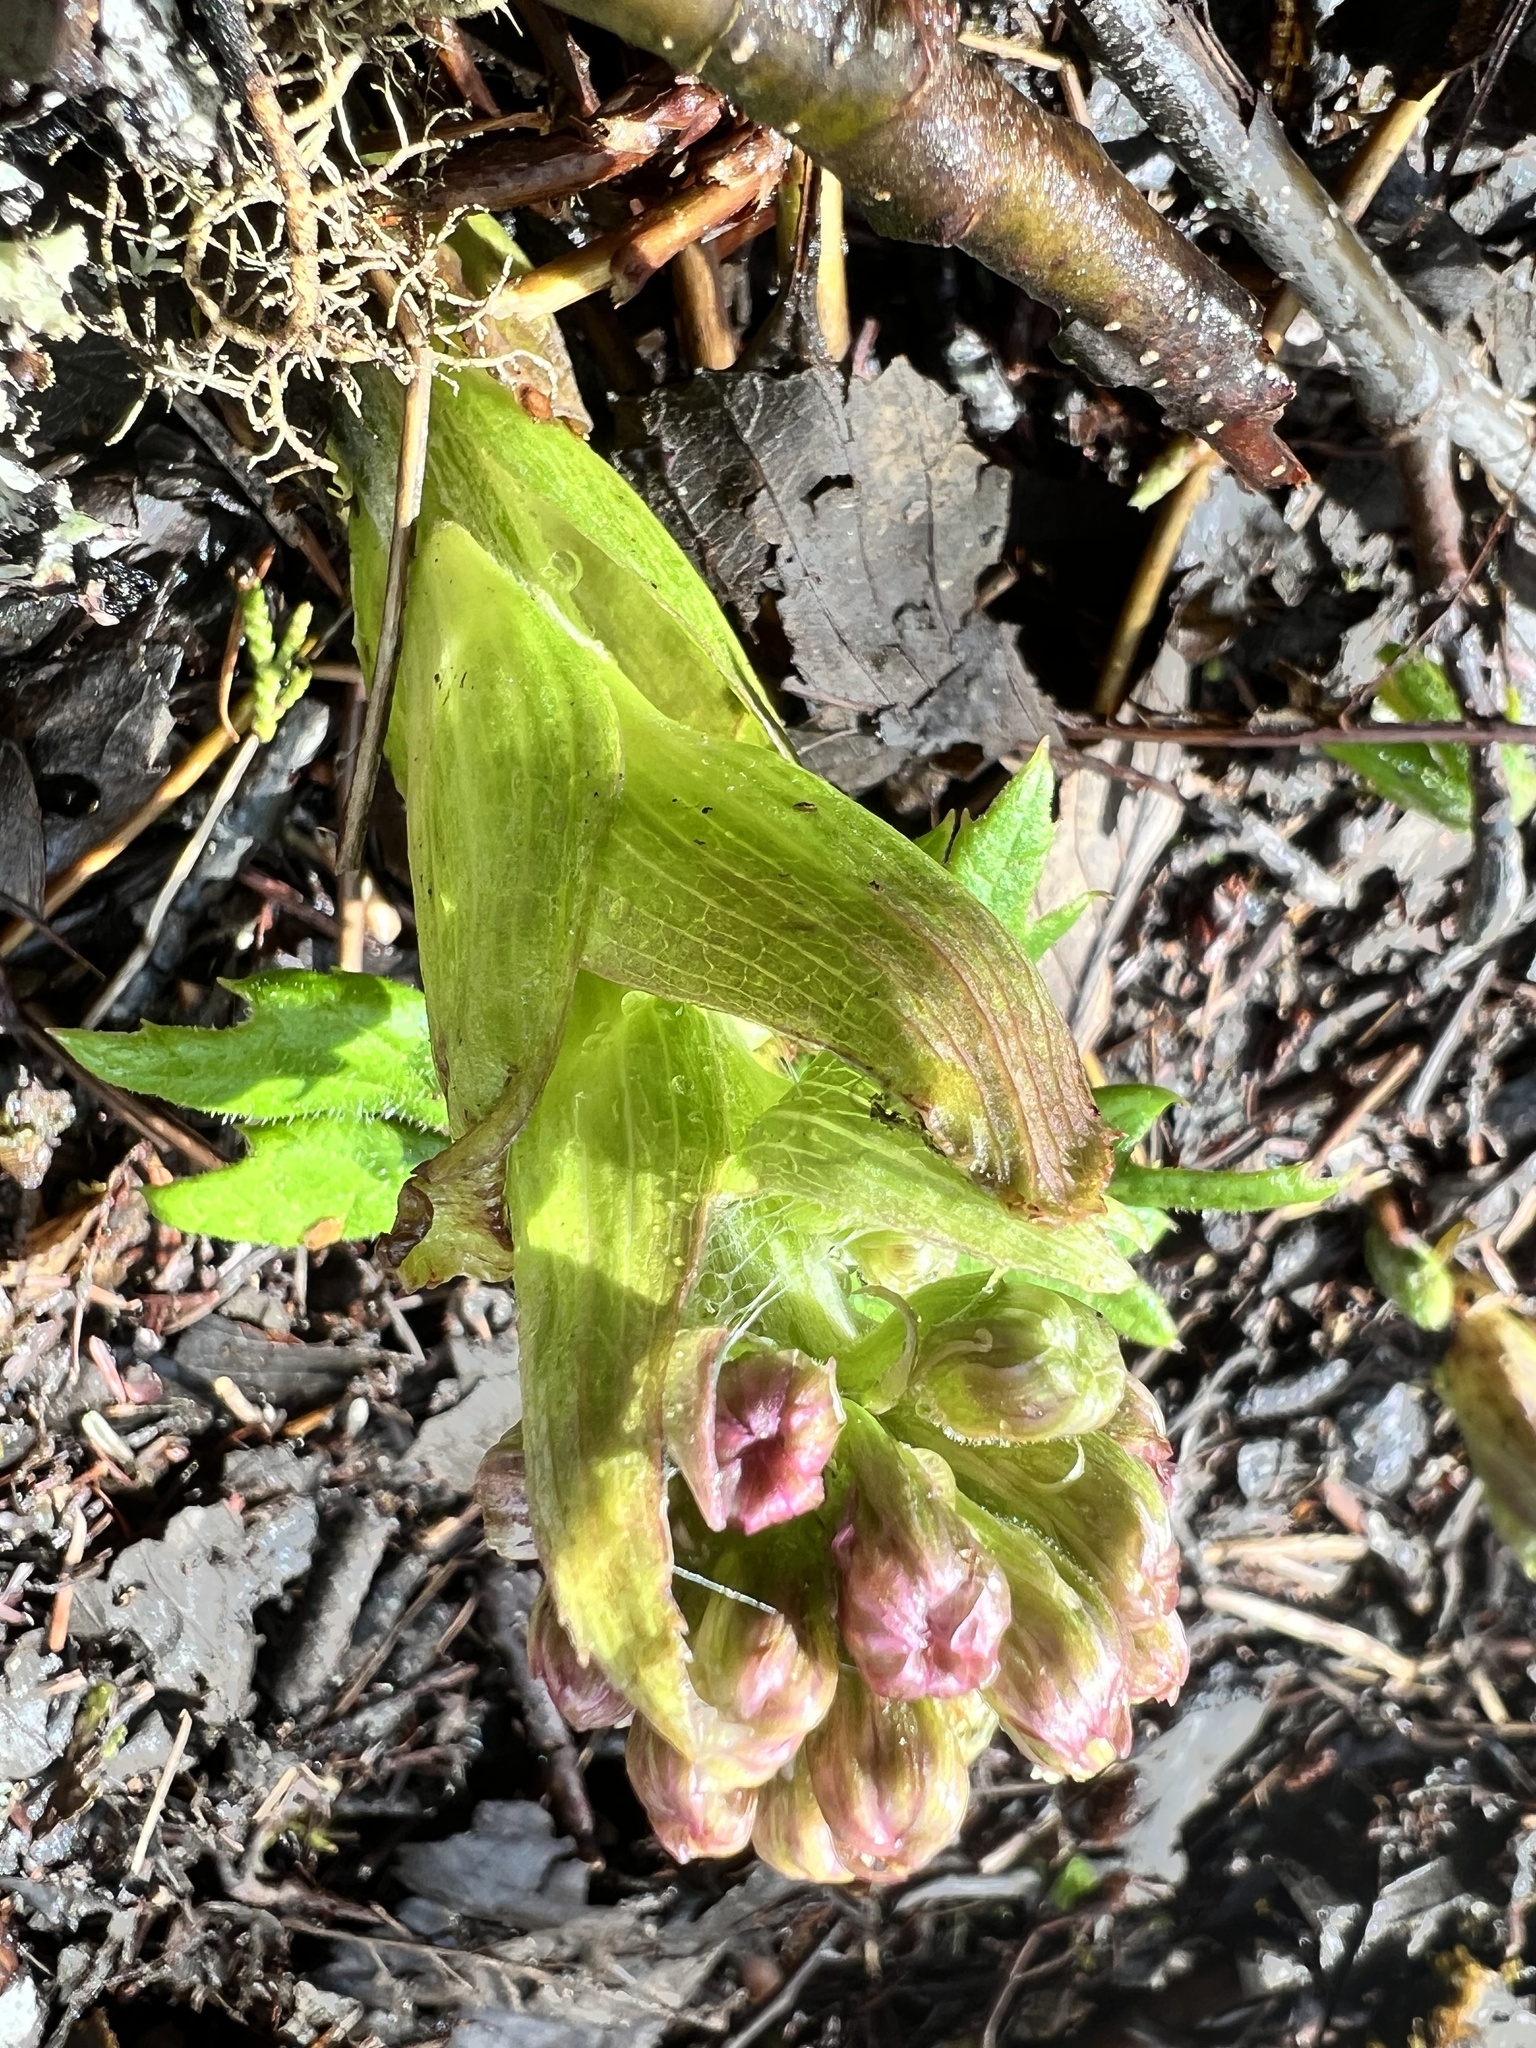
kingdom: Plantae
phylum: Tracheophyta
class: Magnoliopsida
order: Asterales
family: Asteraceae
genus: Petasites
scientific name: Petasites frigidus
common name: Arctic butterbur
